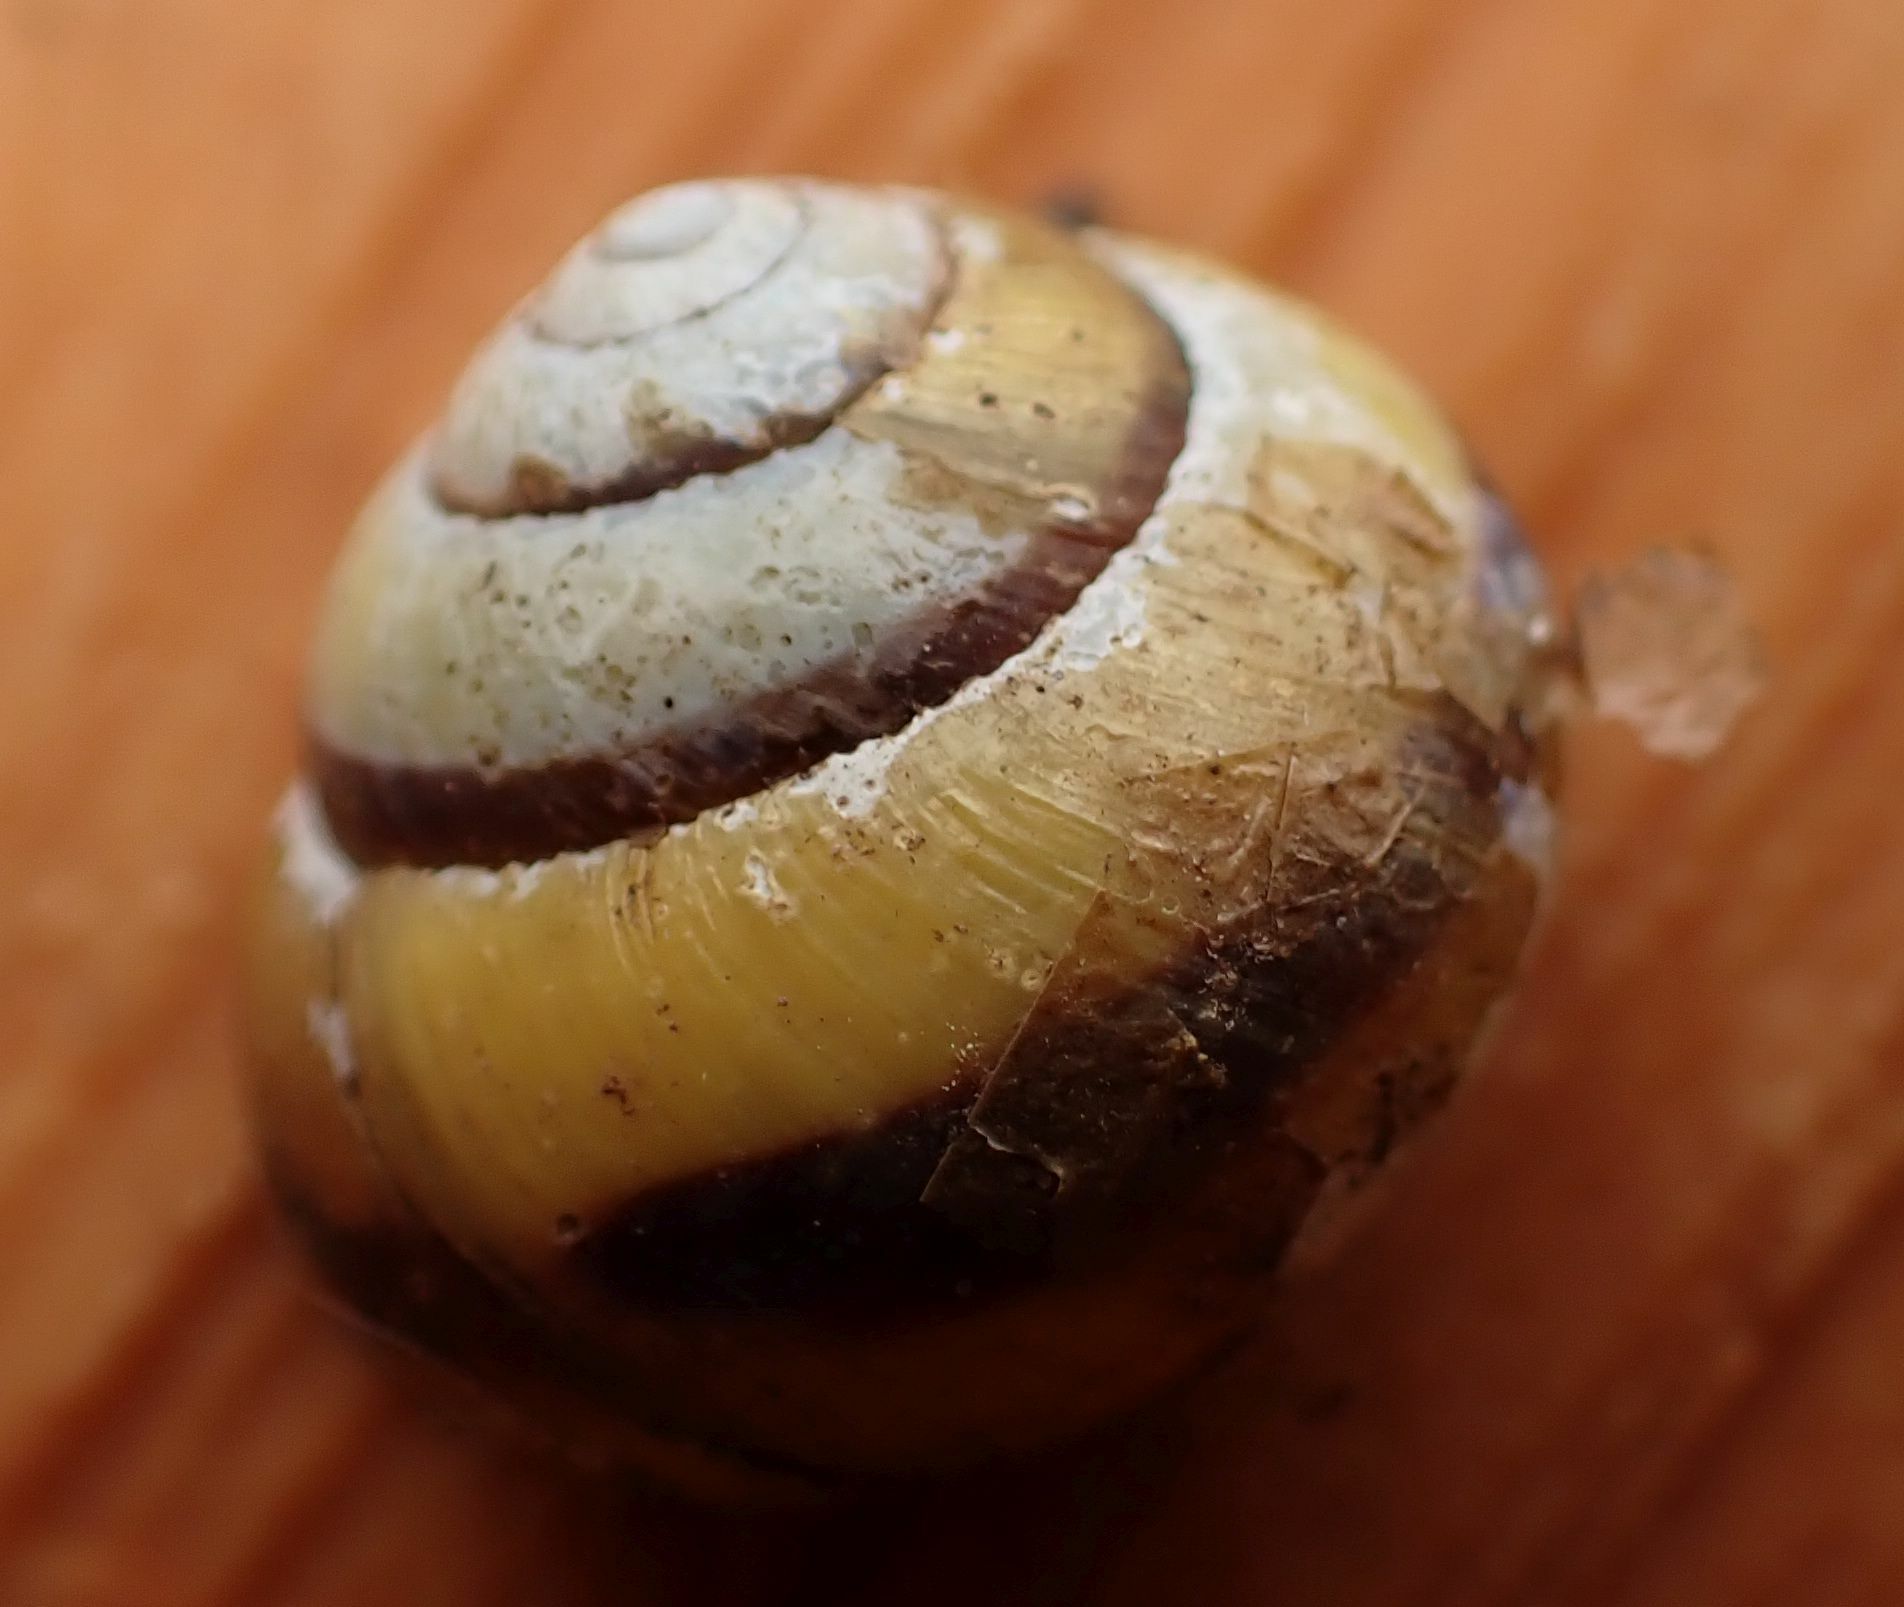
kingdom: Animalia
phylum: Mollusca
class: Gastropoda
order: Stylommatophora
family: Helicidae
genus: Cepaea
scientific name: Cepaea nemoralis
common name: Grovesnail
